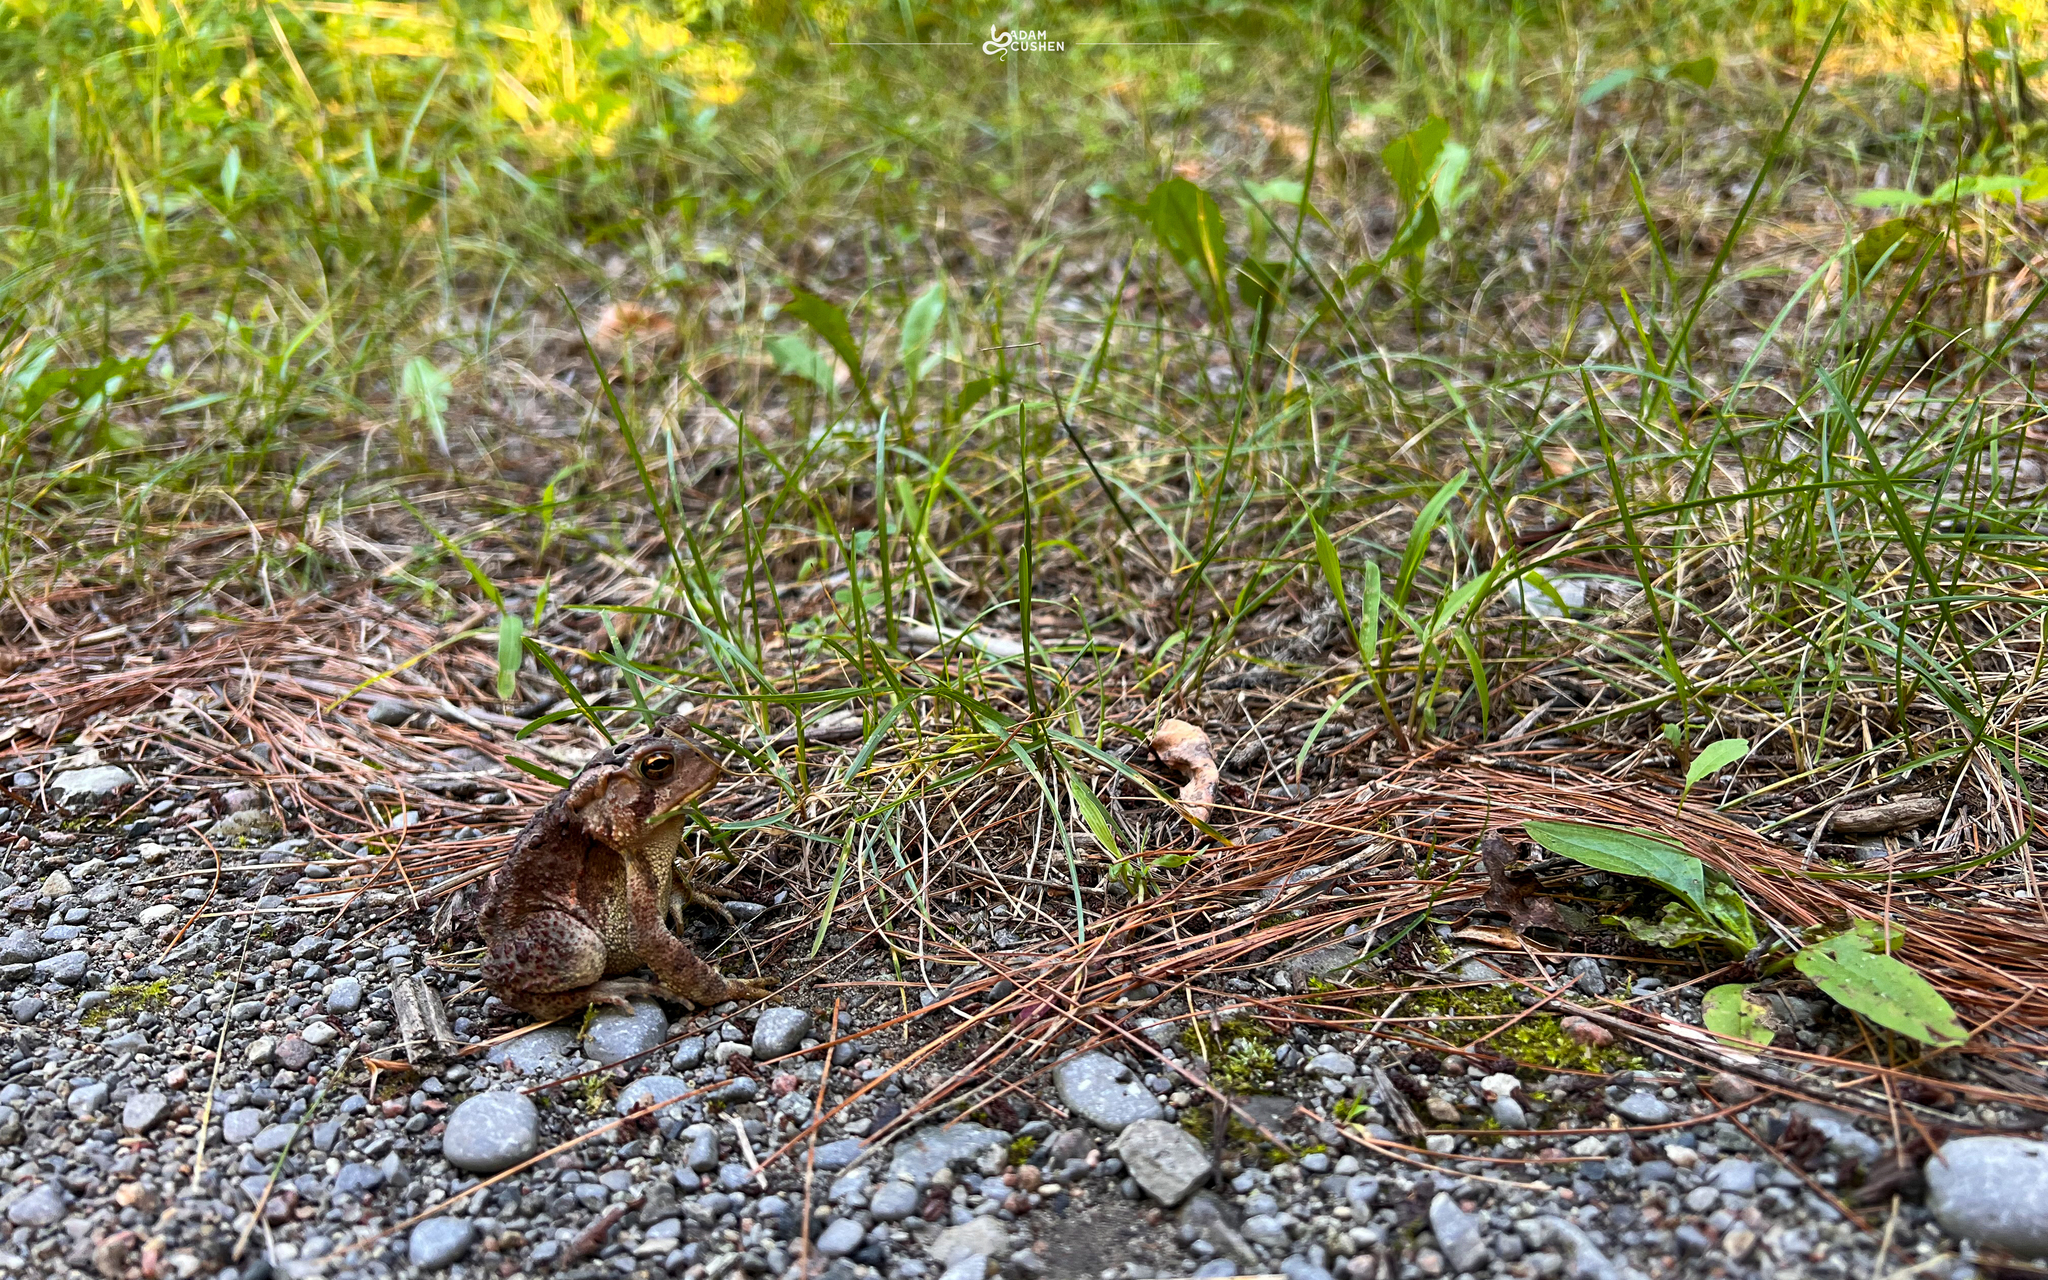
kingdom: Animalia
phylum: Chordata
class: Amphibia
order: Anura
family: Bufonidae
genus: Anaxyrus
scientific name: Anaxyrus americanus
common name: American toad
